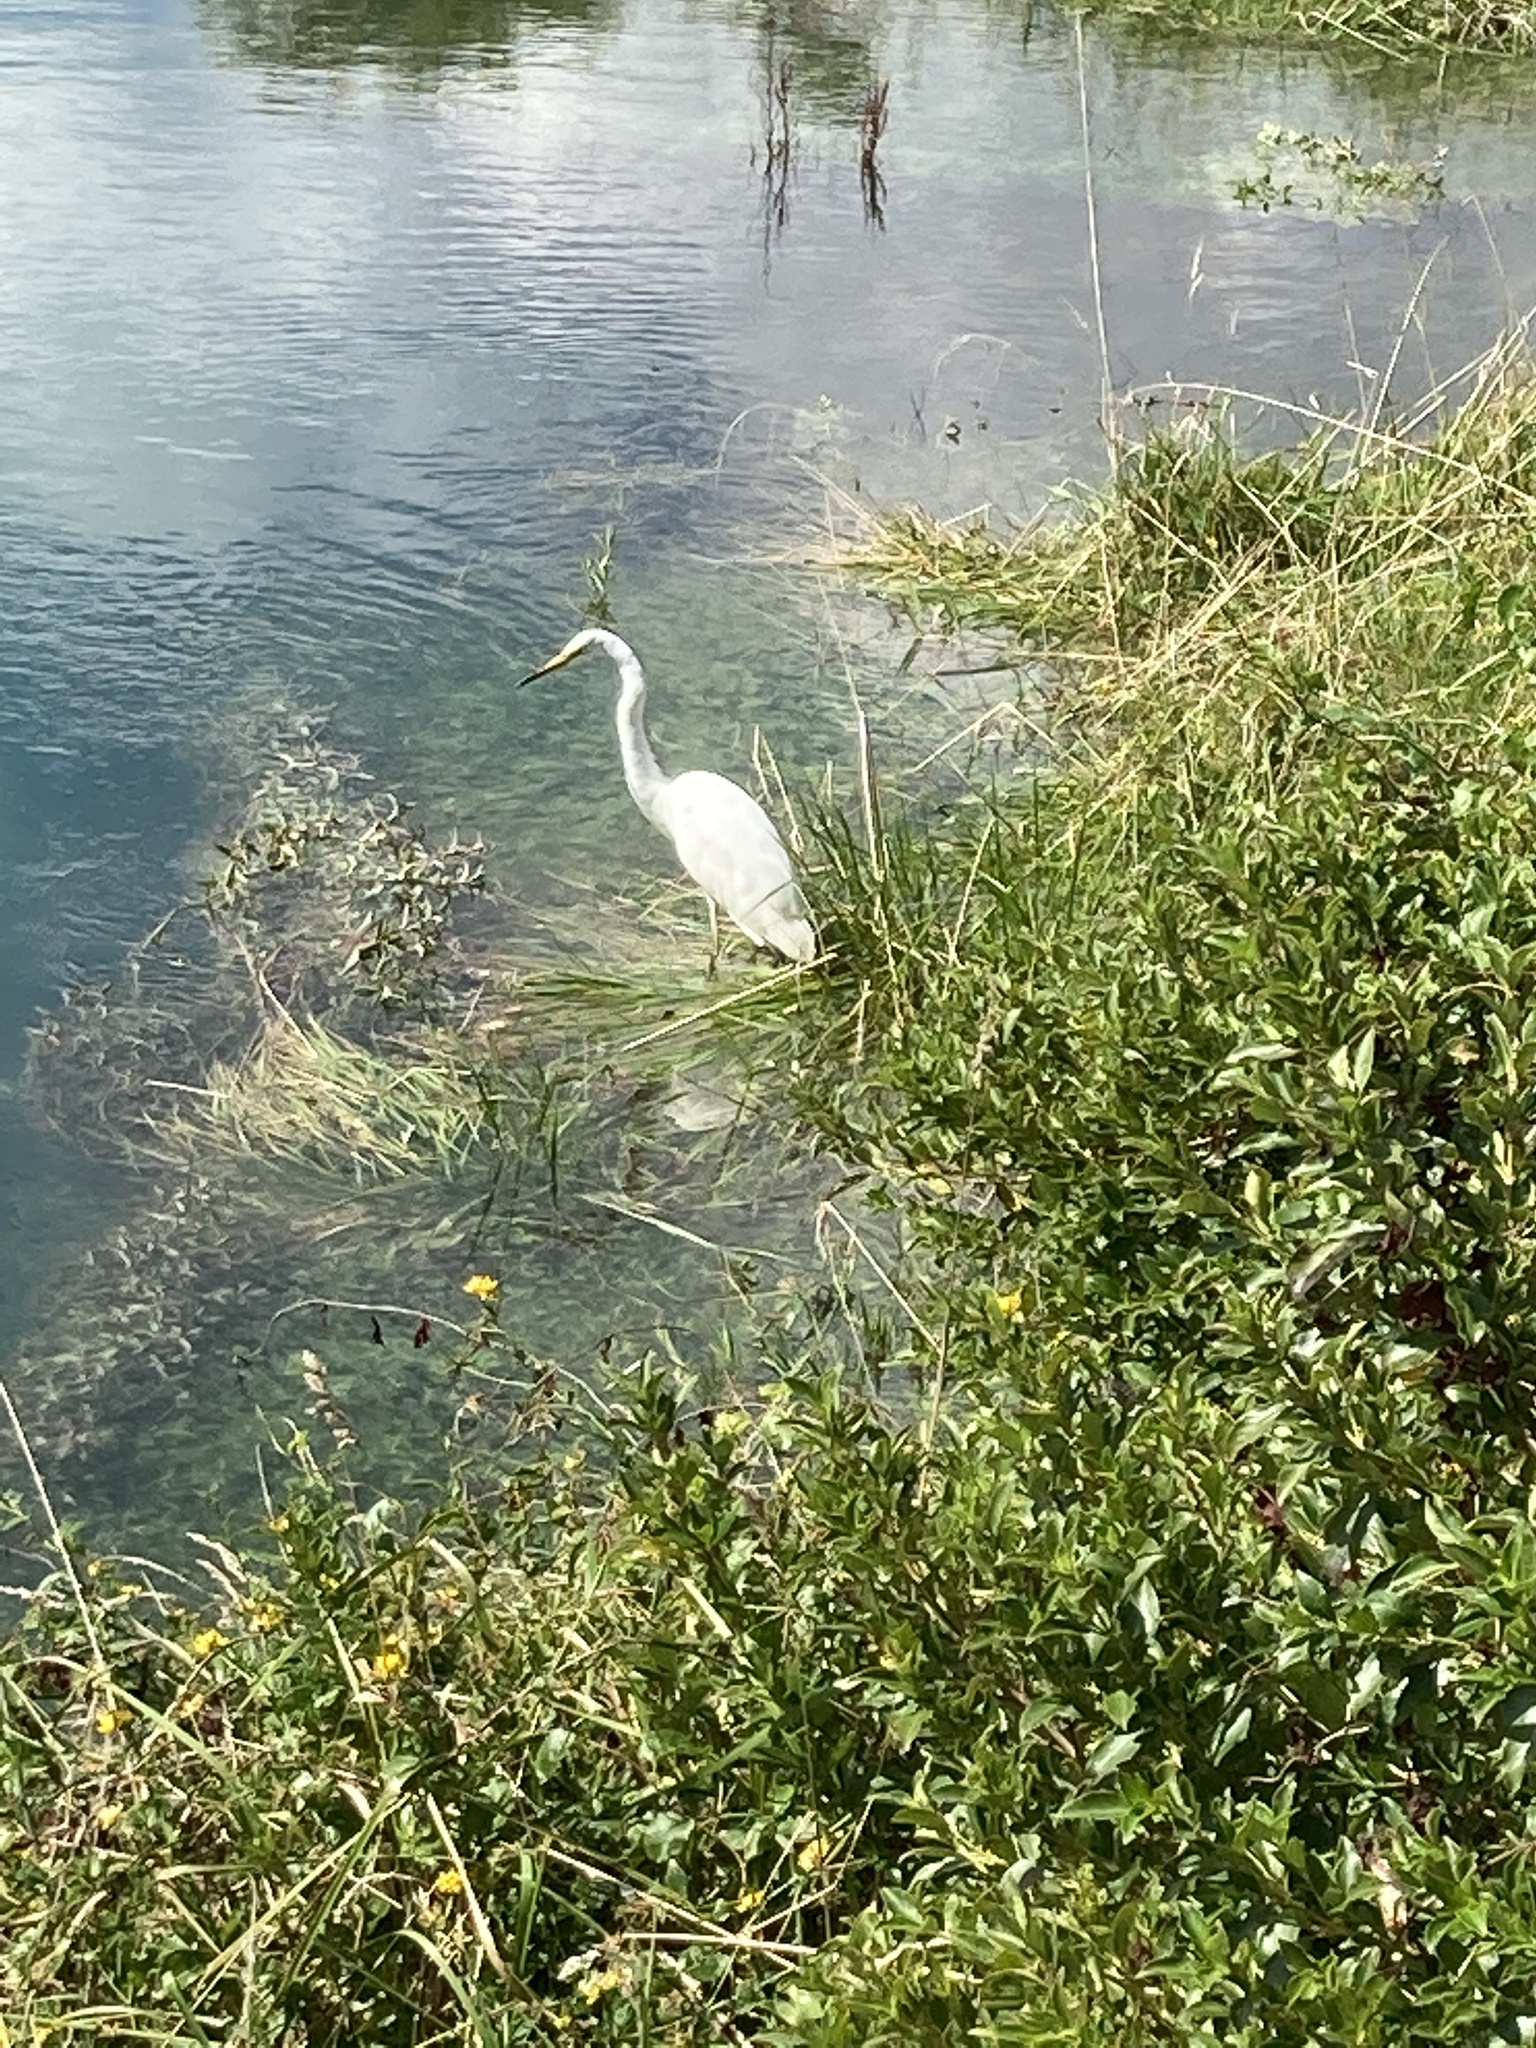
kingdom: Animalia
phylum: Chordata
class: Aves
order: Pelecaniformes
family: Ardeidae
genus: Ardea
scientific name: Ardea modesta
